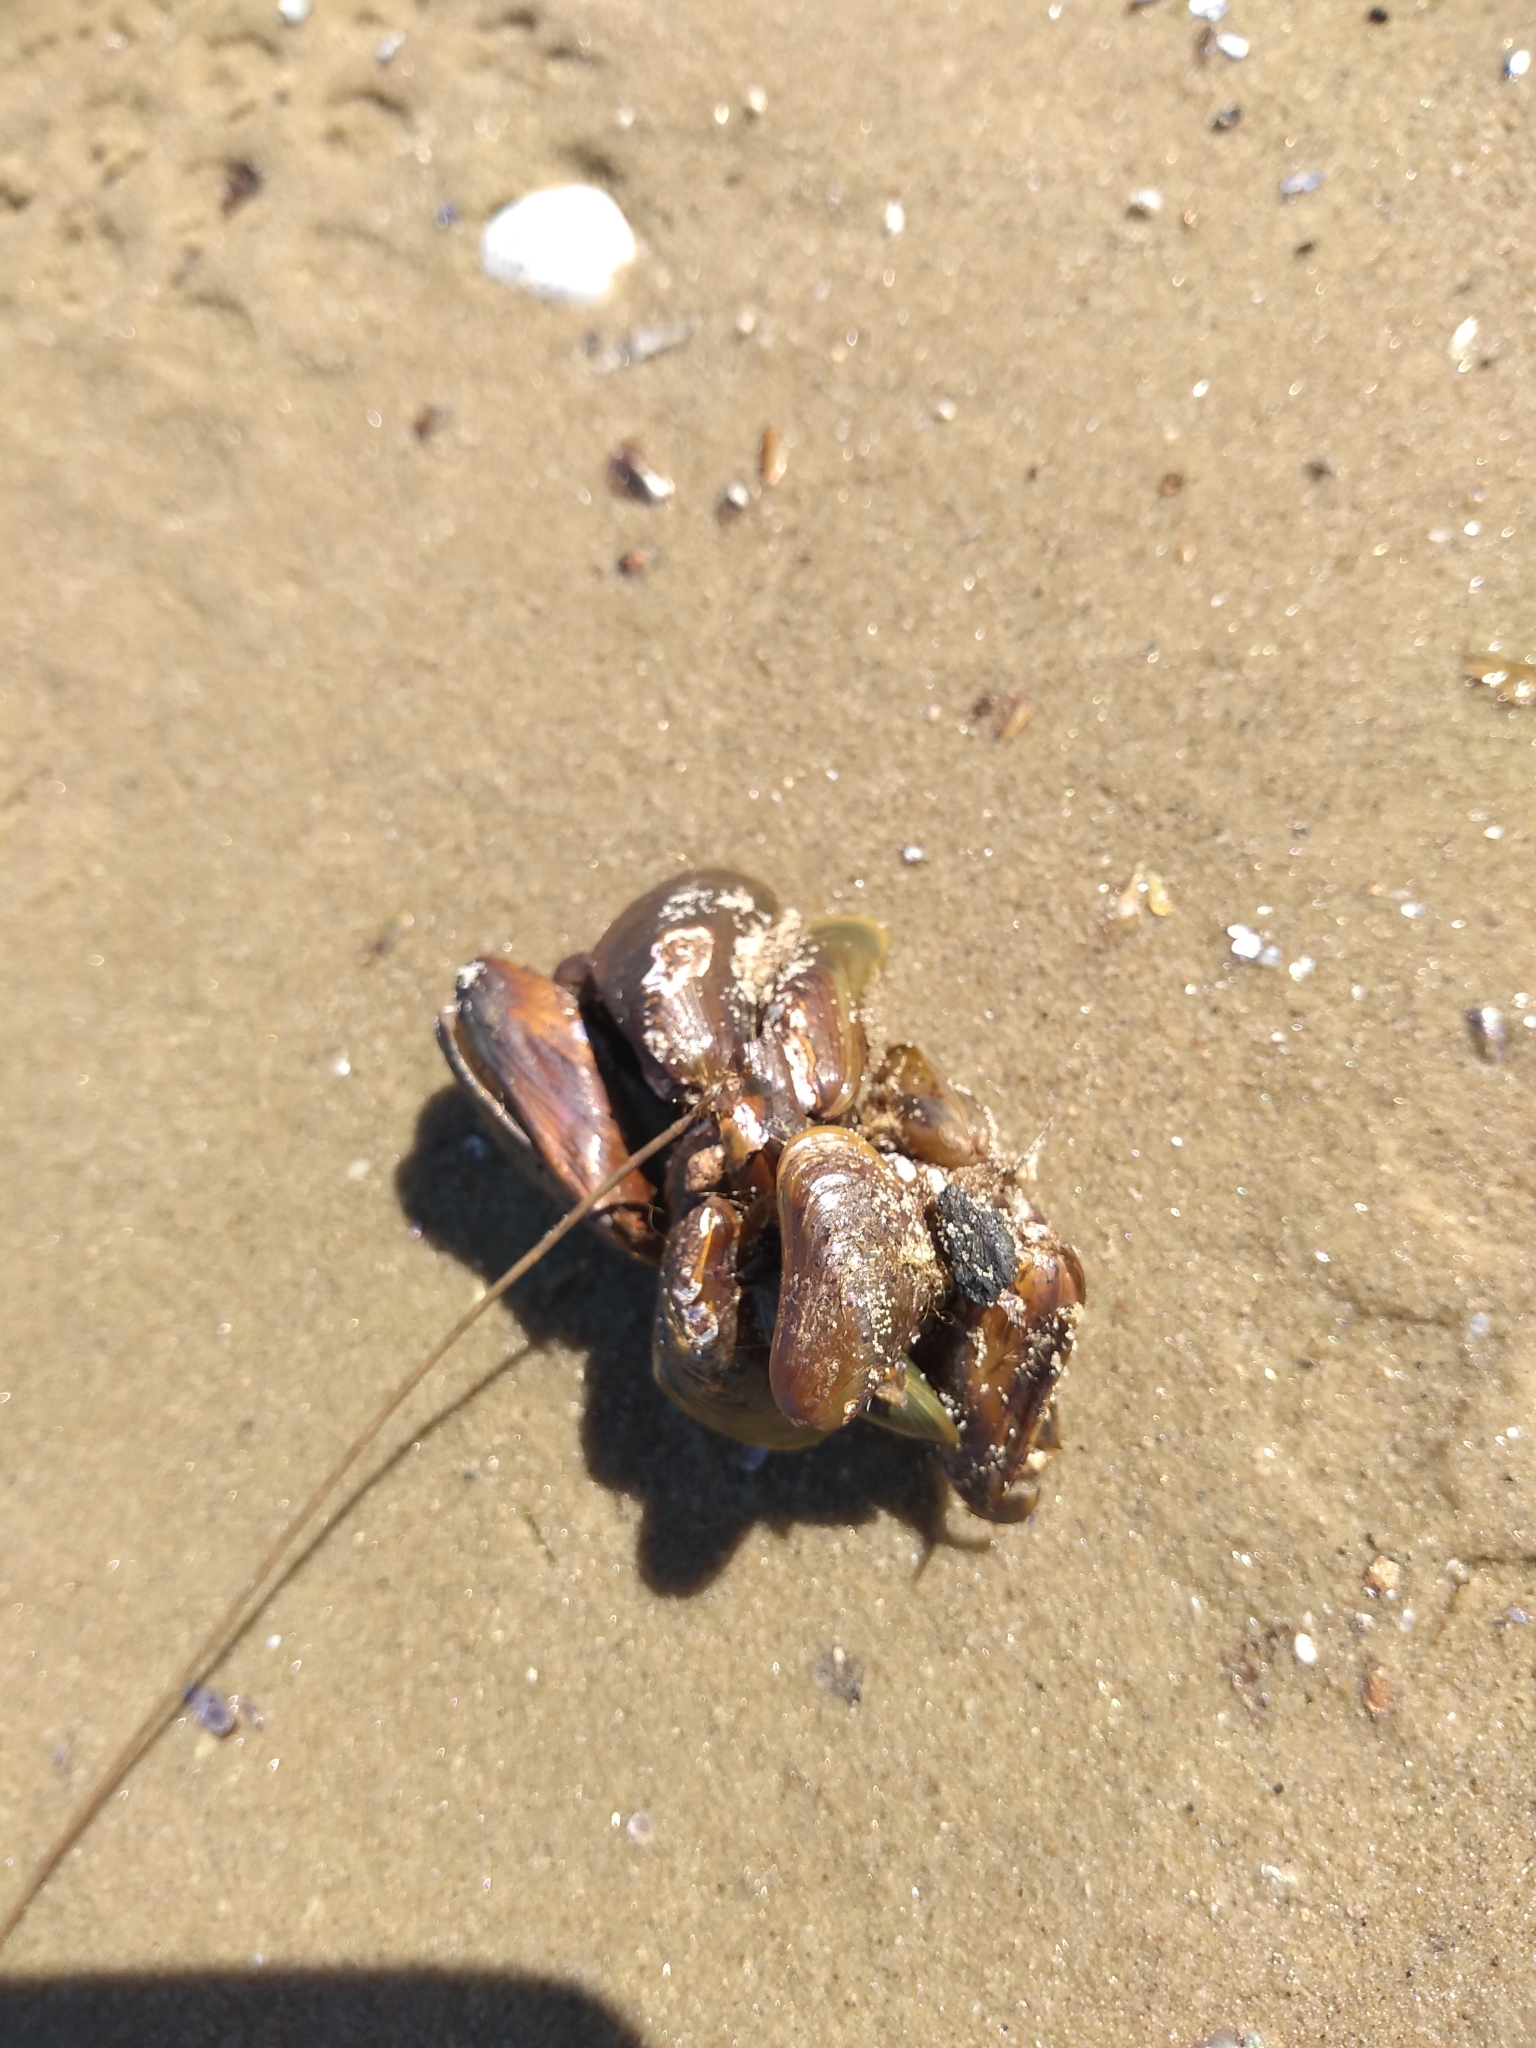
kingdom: Animalia
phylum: Mollusca
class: Bivalvia
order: Mytilida
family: Mytilidae
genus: Limnoperna
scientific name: Limnoperna fortunei
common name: Golden mussel
